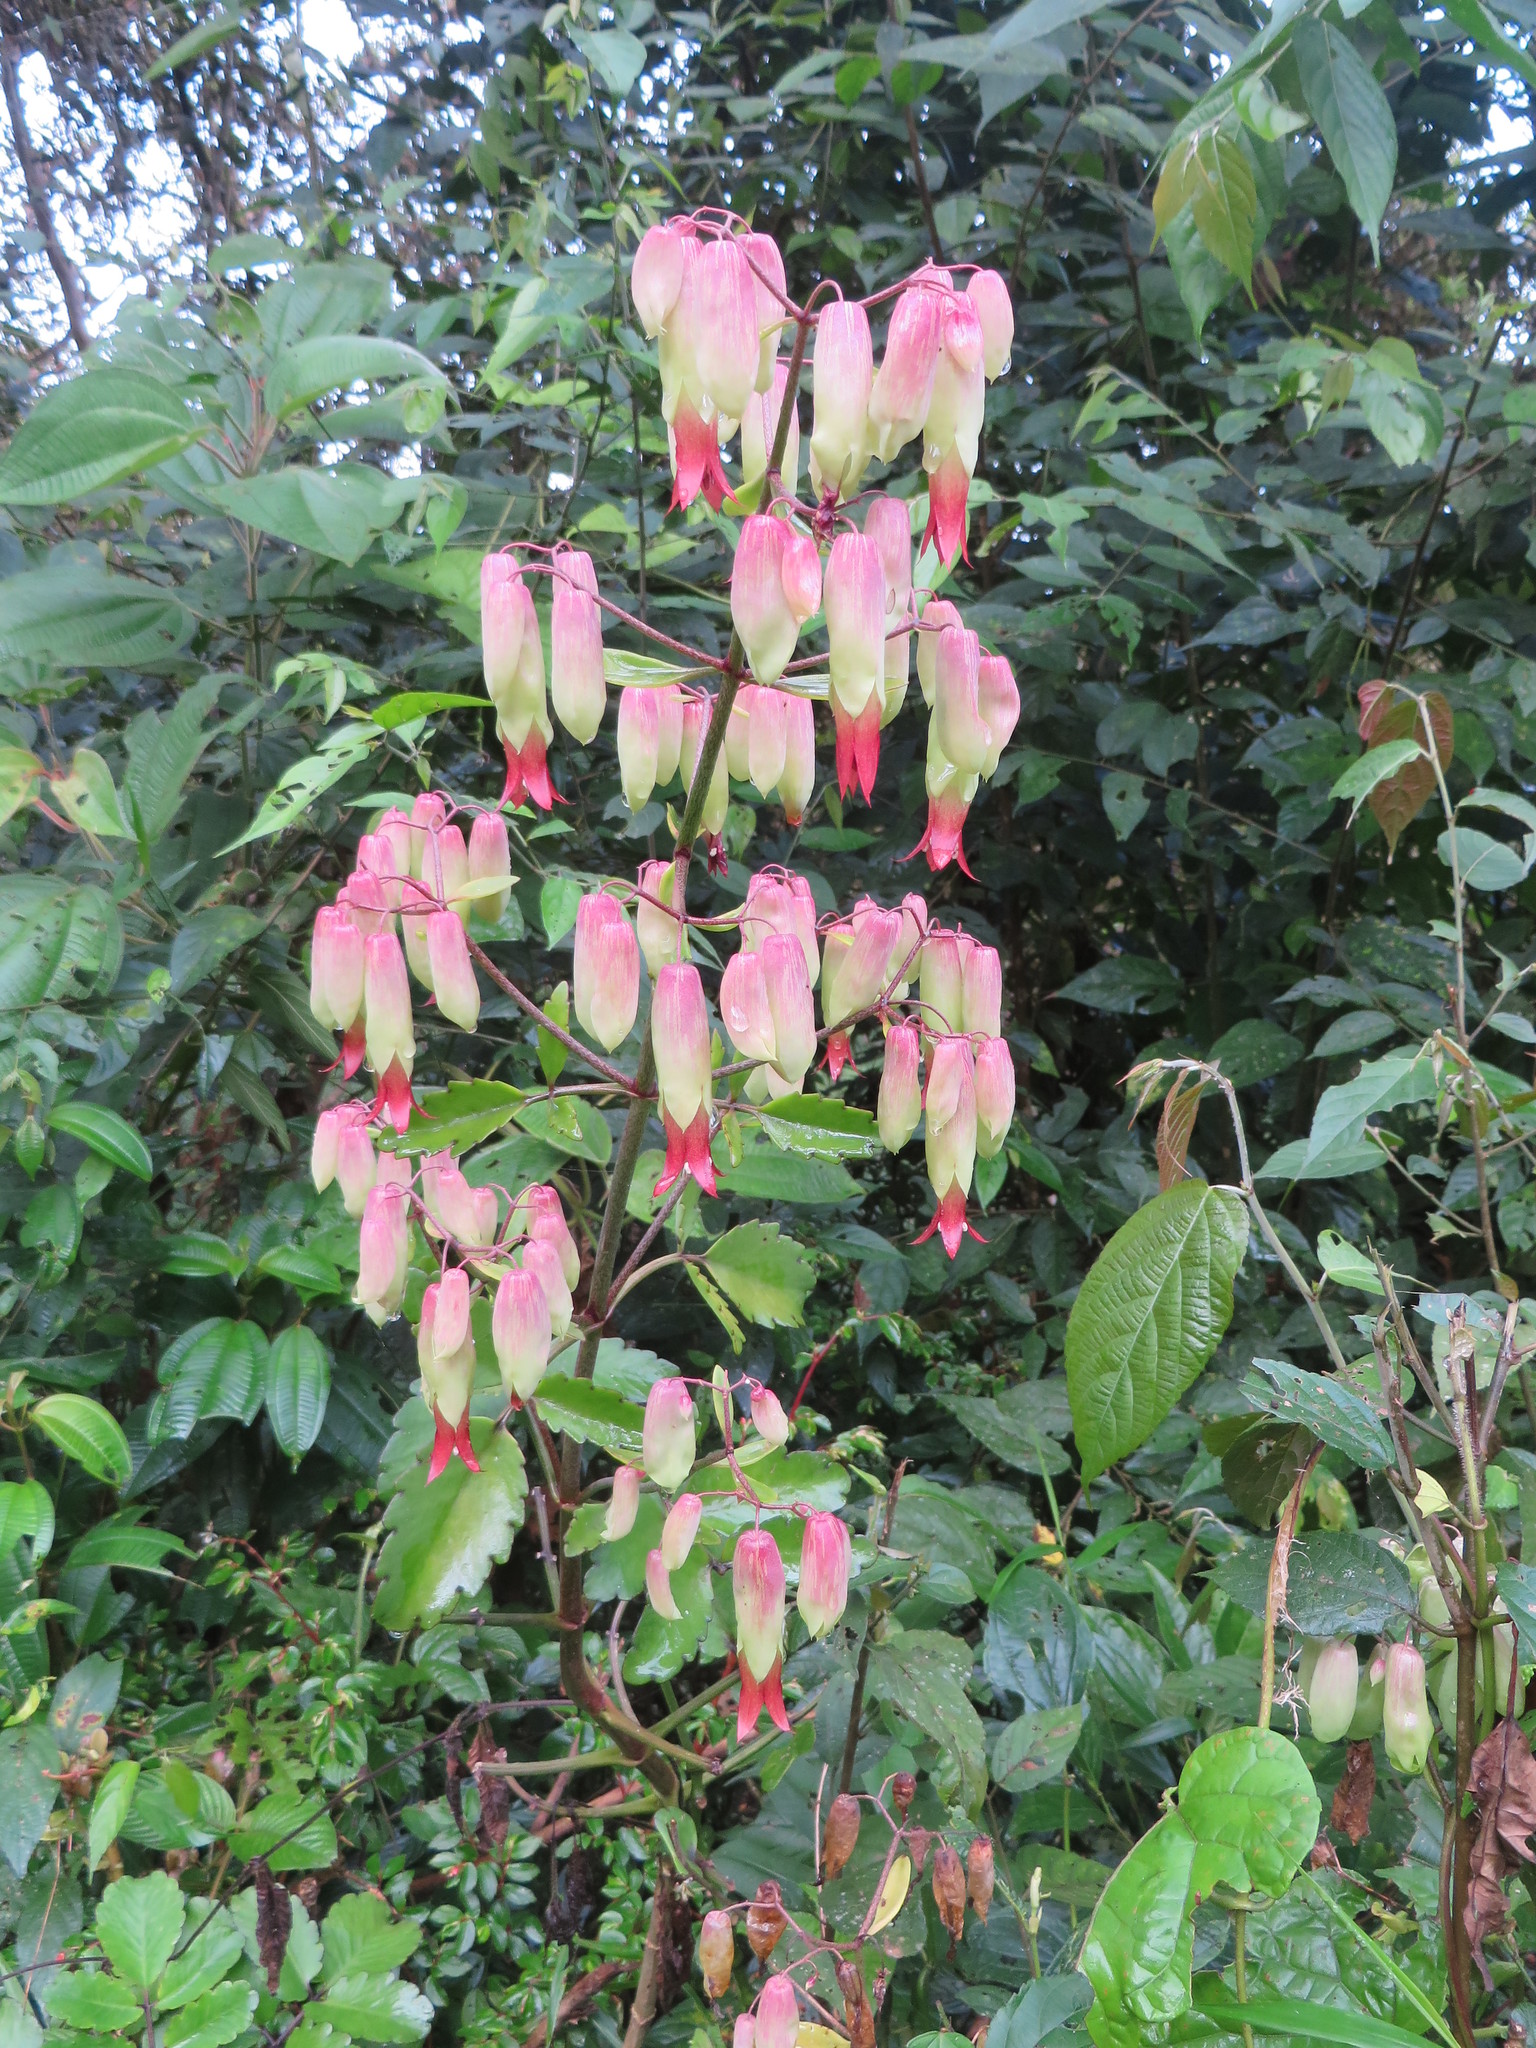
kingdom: Plantae
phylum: Tracheophyta
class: Magnoliopsida
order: Saxifragales
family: Crassulaceae
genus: Kalanchoe
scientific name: Kalanchoe pinnata
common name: Cathedral bells
